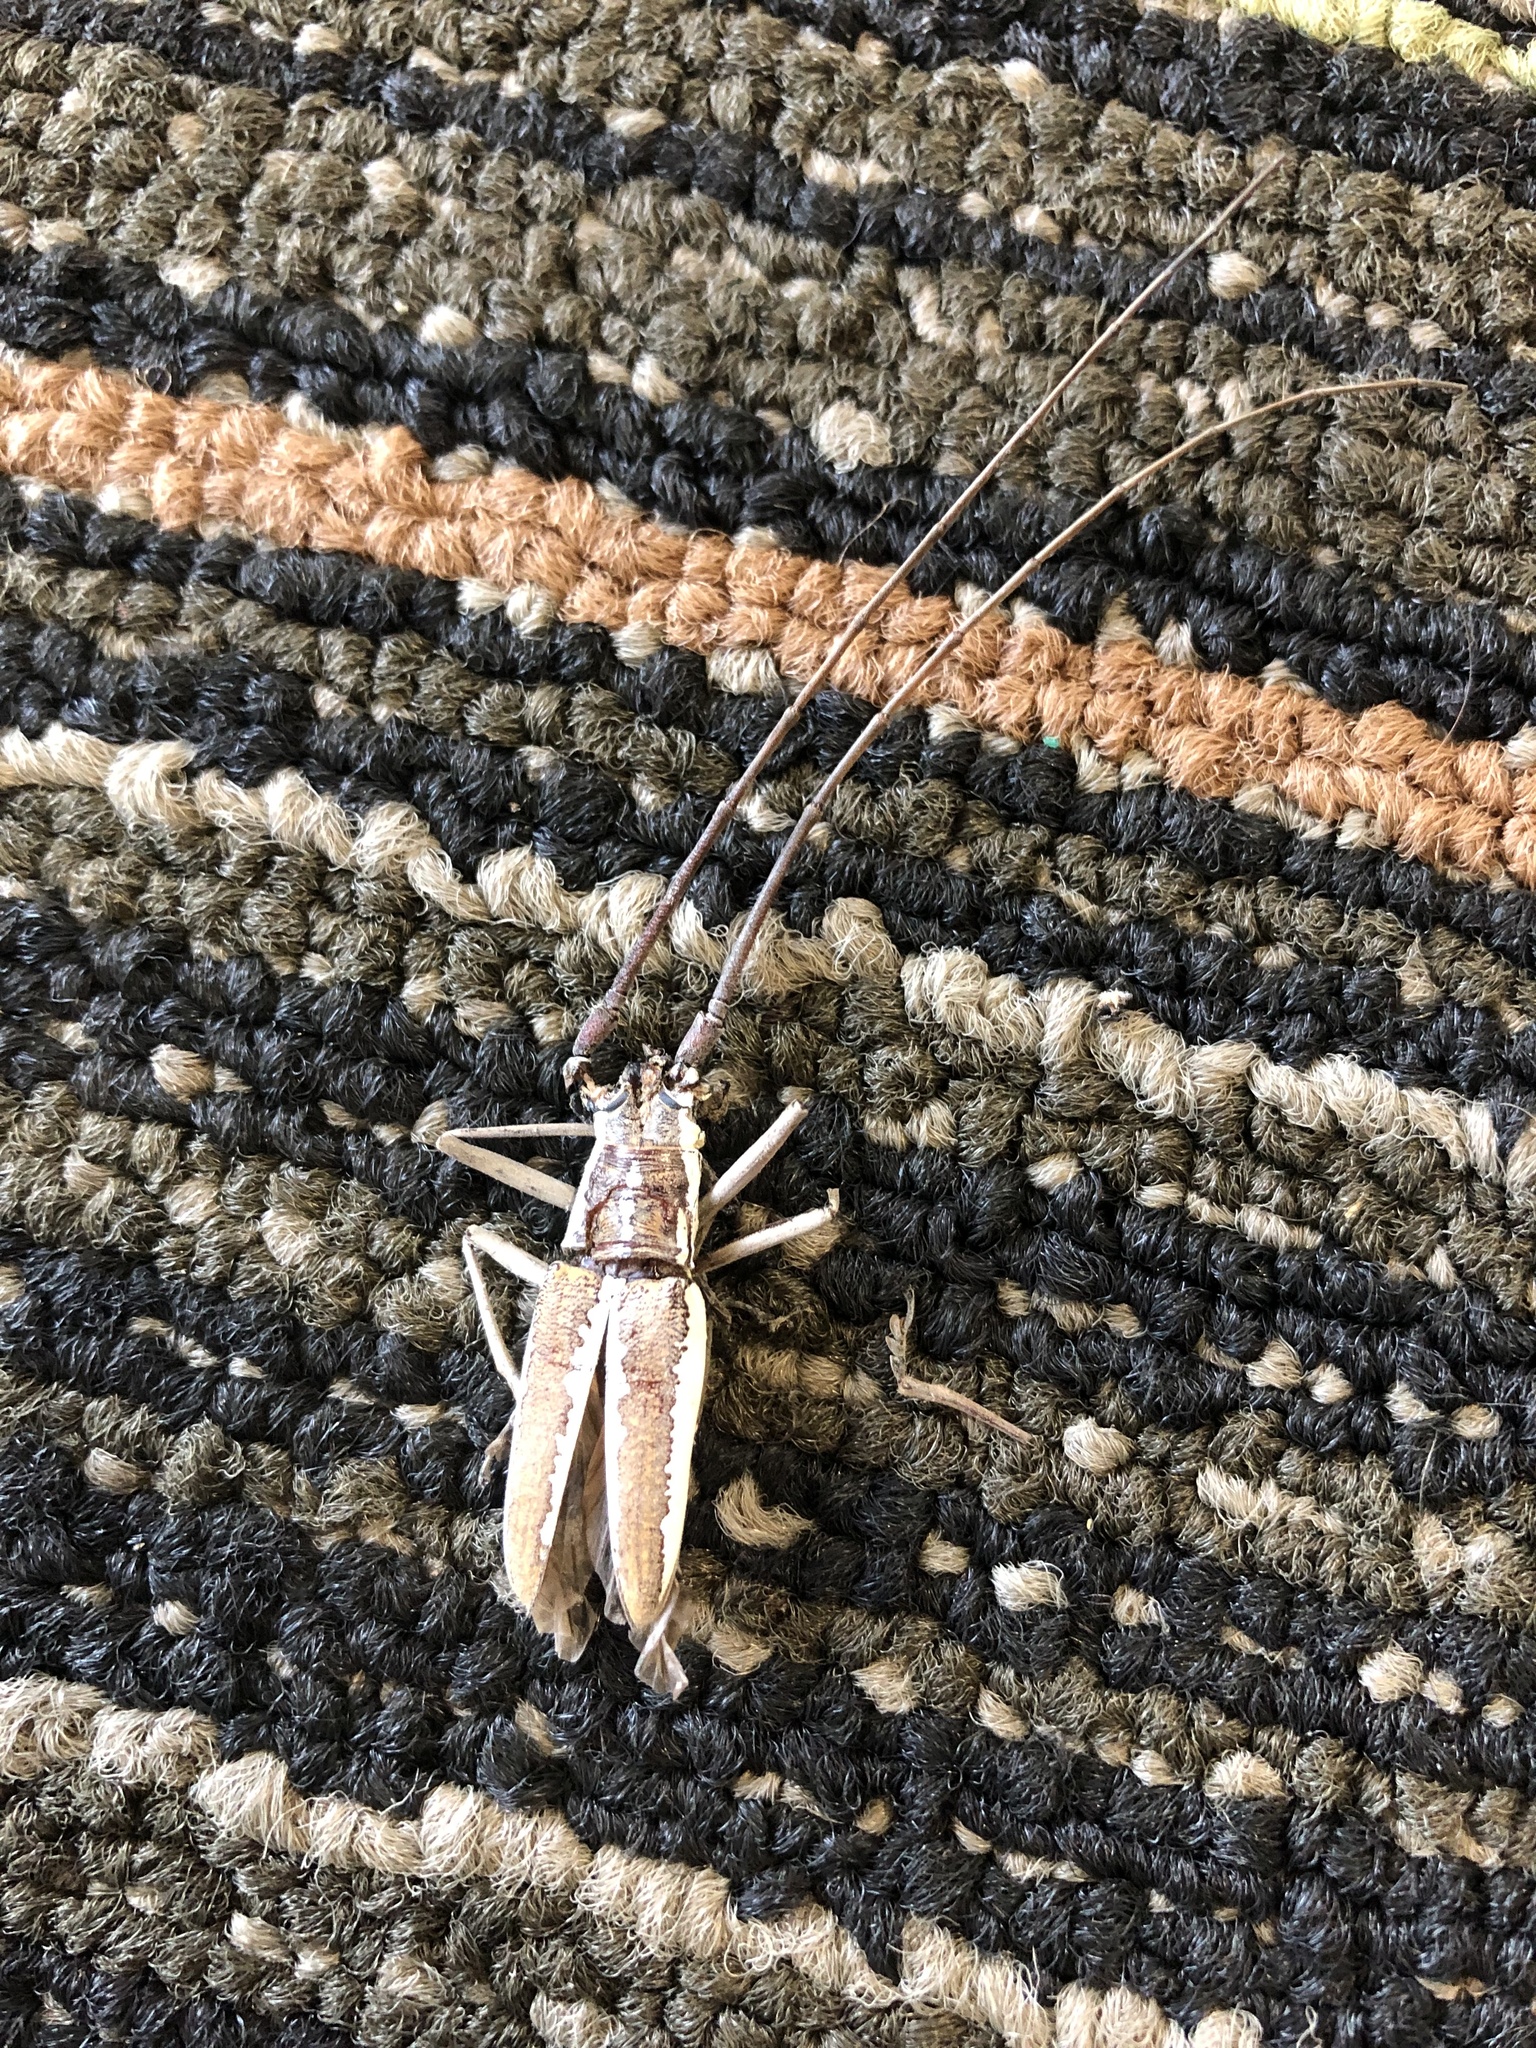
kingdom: Animalia
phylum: Arthropoda
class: Insecta
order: Coleoptera
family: Cerambycidae
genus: Neoptychodes
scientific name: Neoptychodes trilineatus
